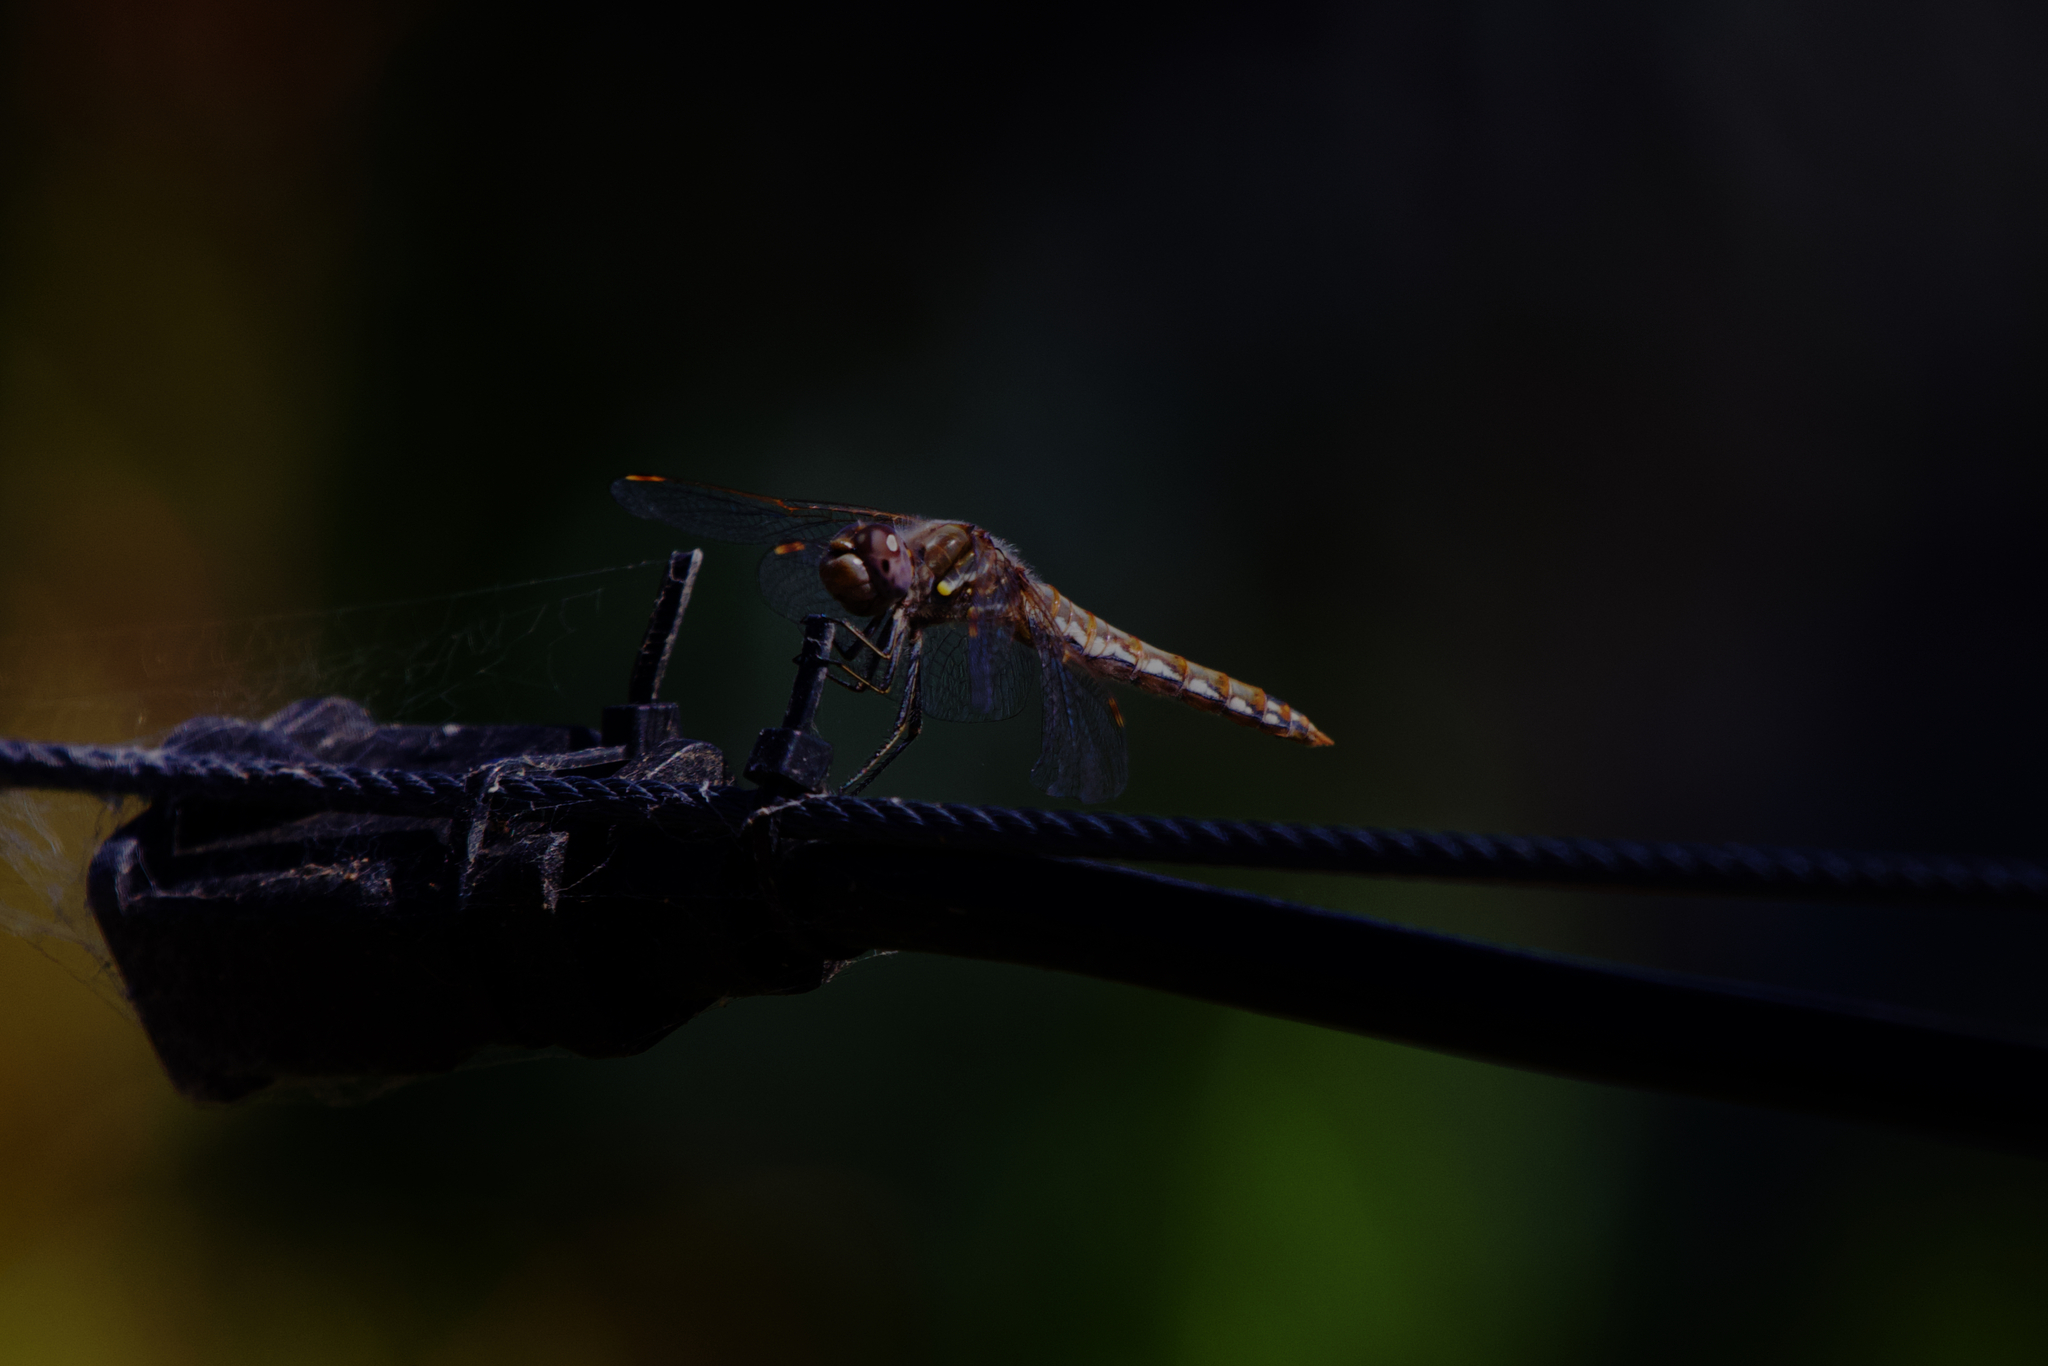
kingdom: Animalia
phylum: Arthropoda
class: Insecta
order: Odonata
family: Libellulidae
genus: Sympetrum
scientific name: Sympetrum corruptum
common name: Variegated meadowhawk
